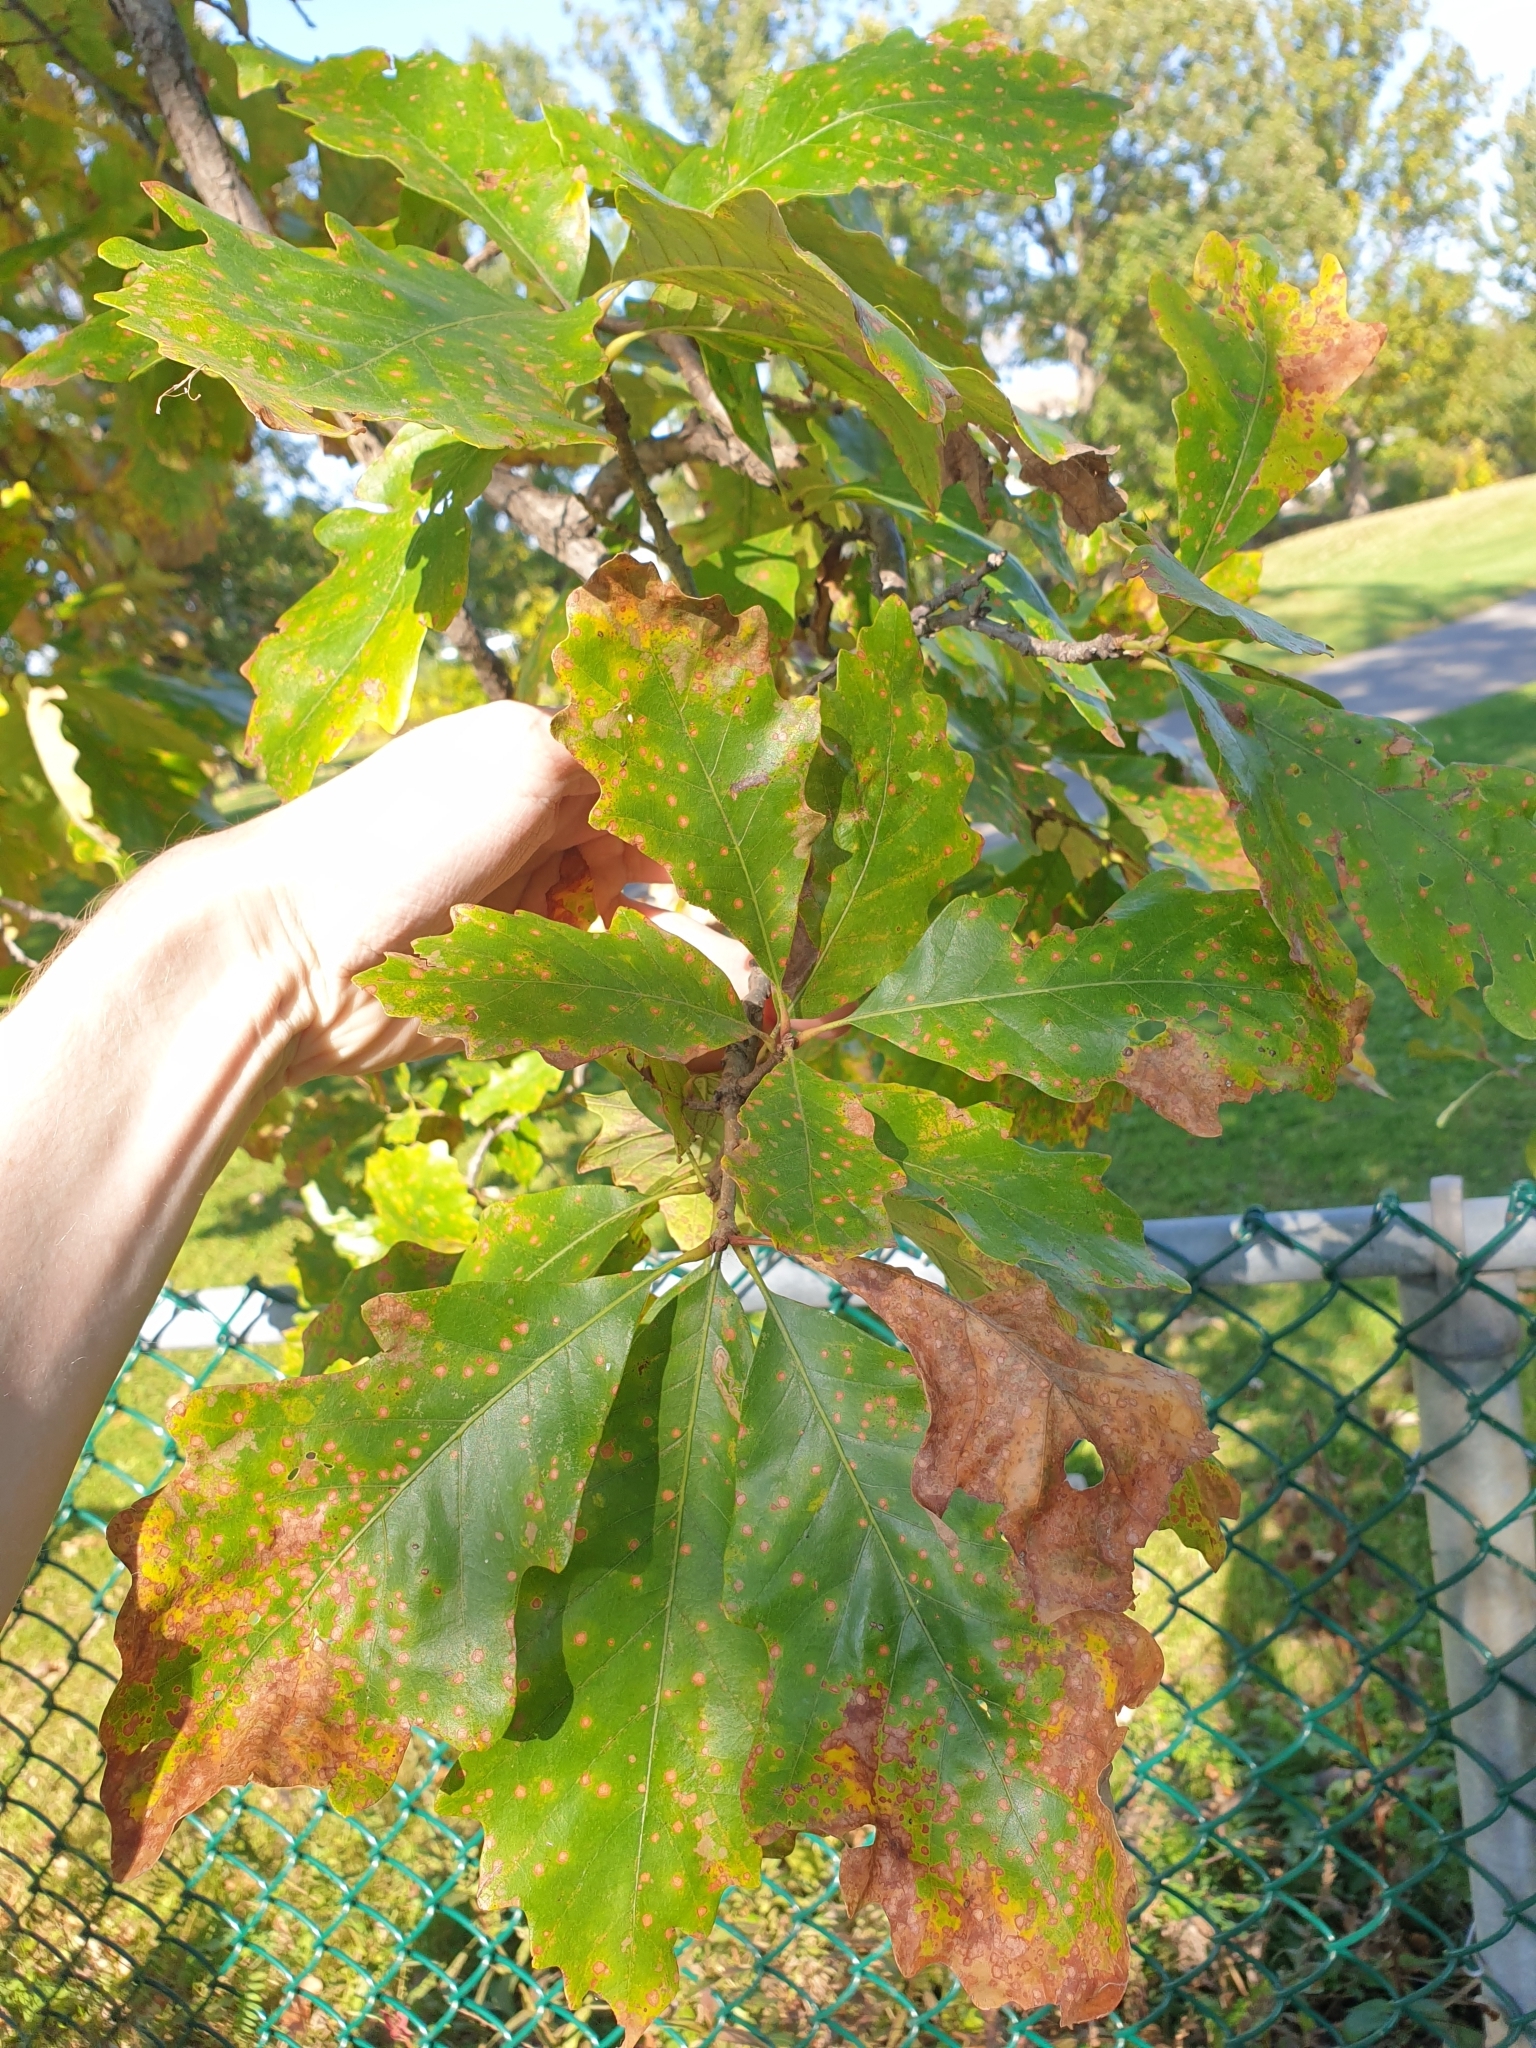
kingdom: Plantae
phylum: Tracheophyta
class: Magnoliopsida
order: Fagales
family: Fagaceae
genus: Quercus
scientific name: Quercus bicolor
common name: Swamp white oak
